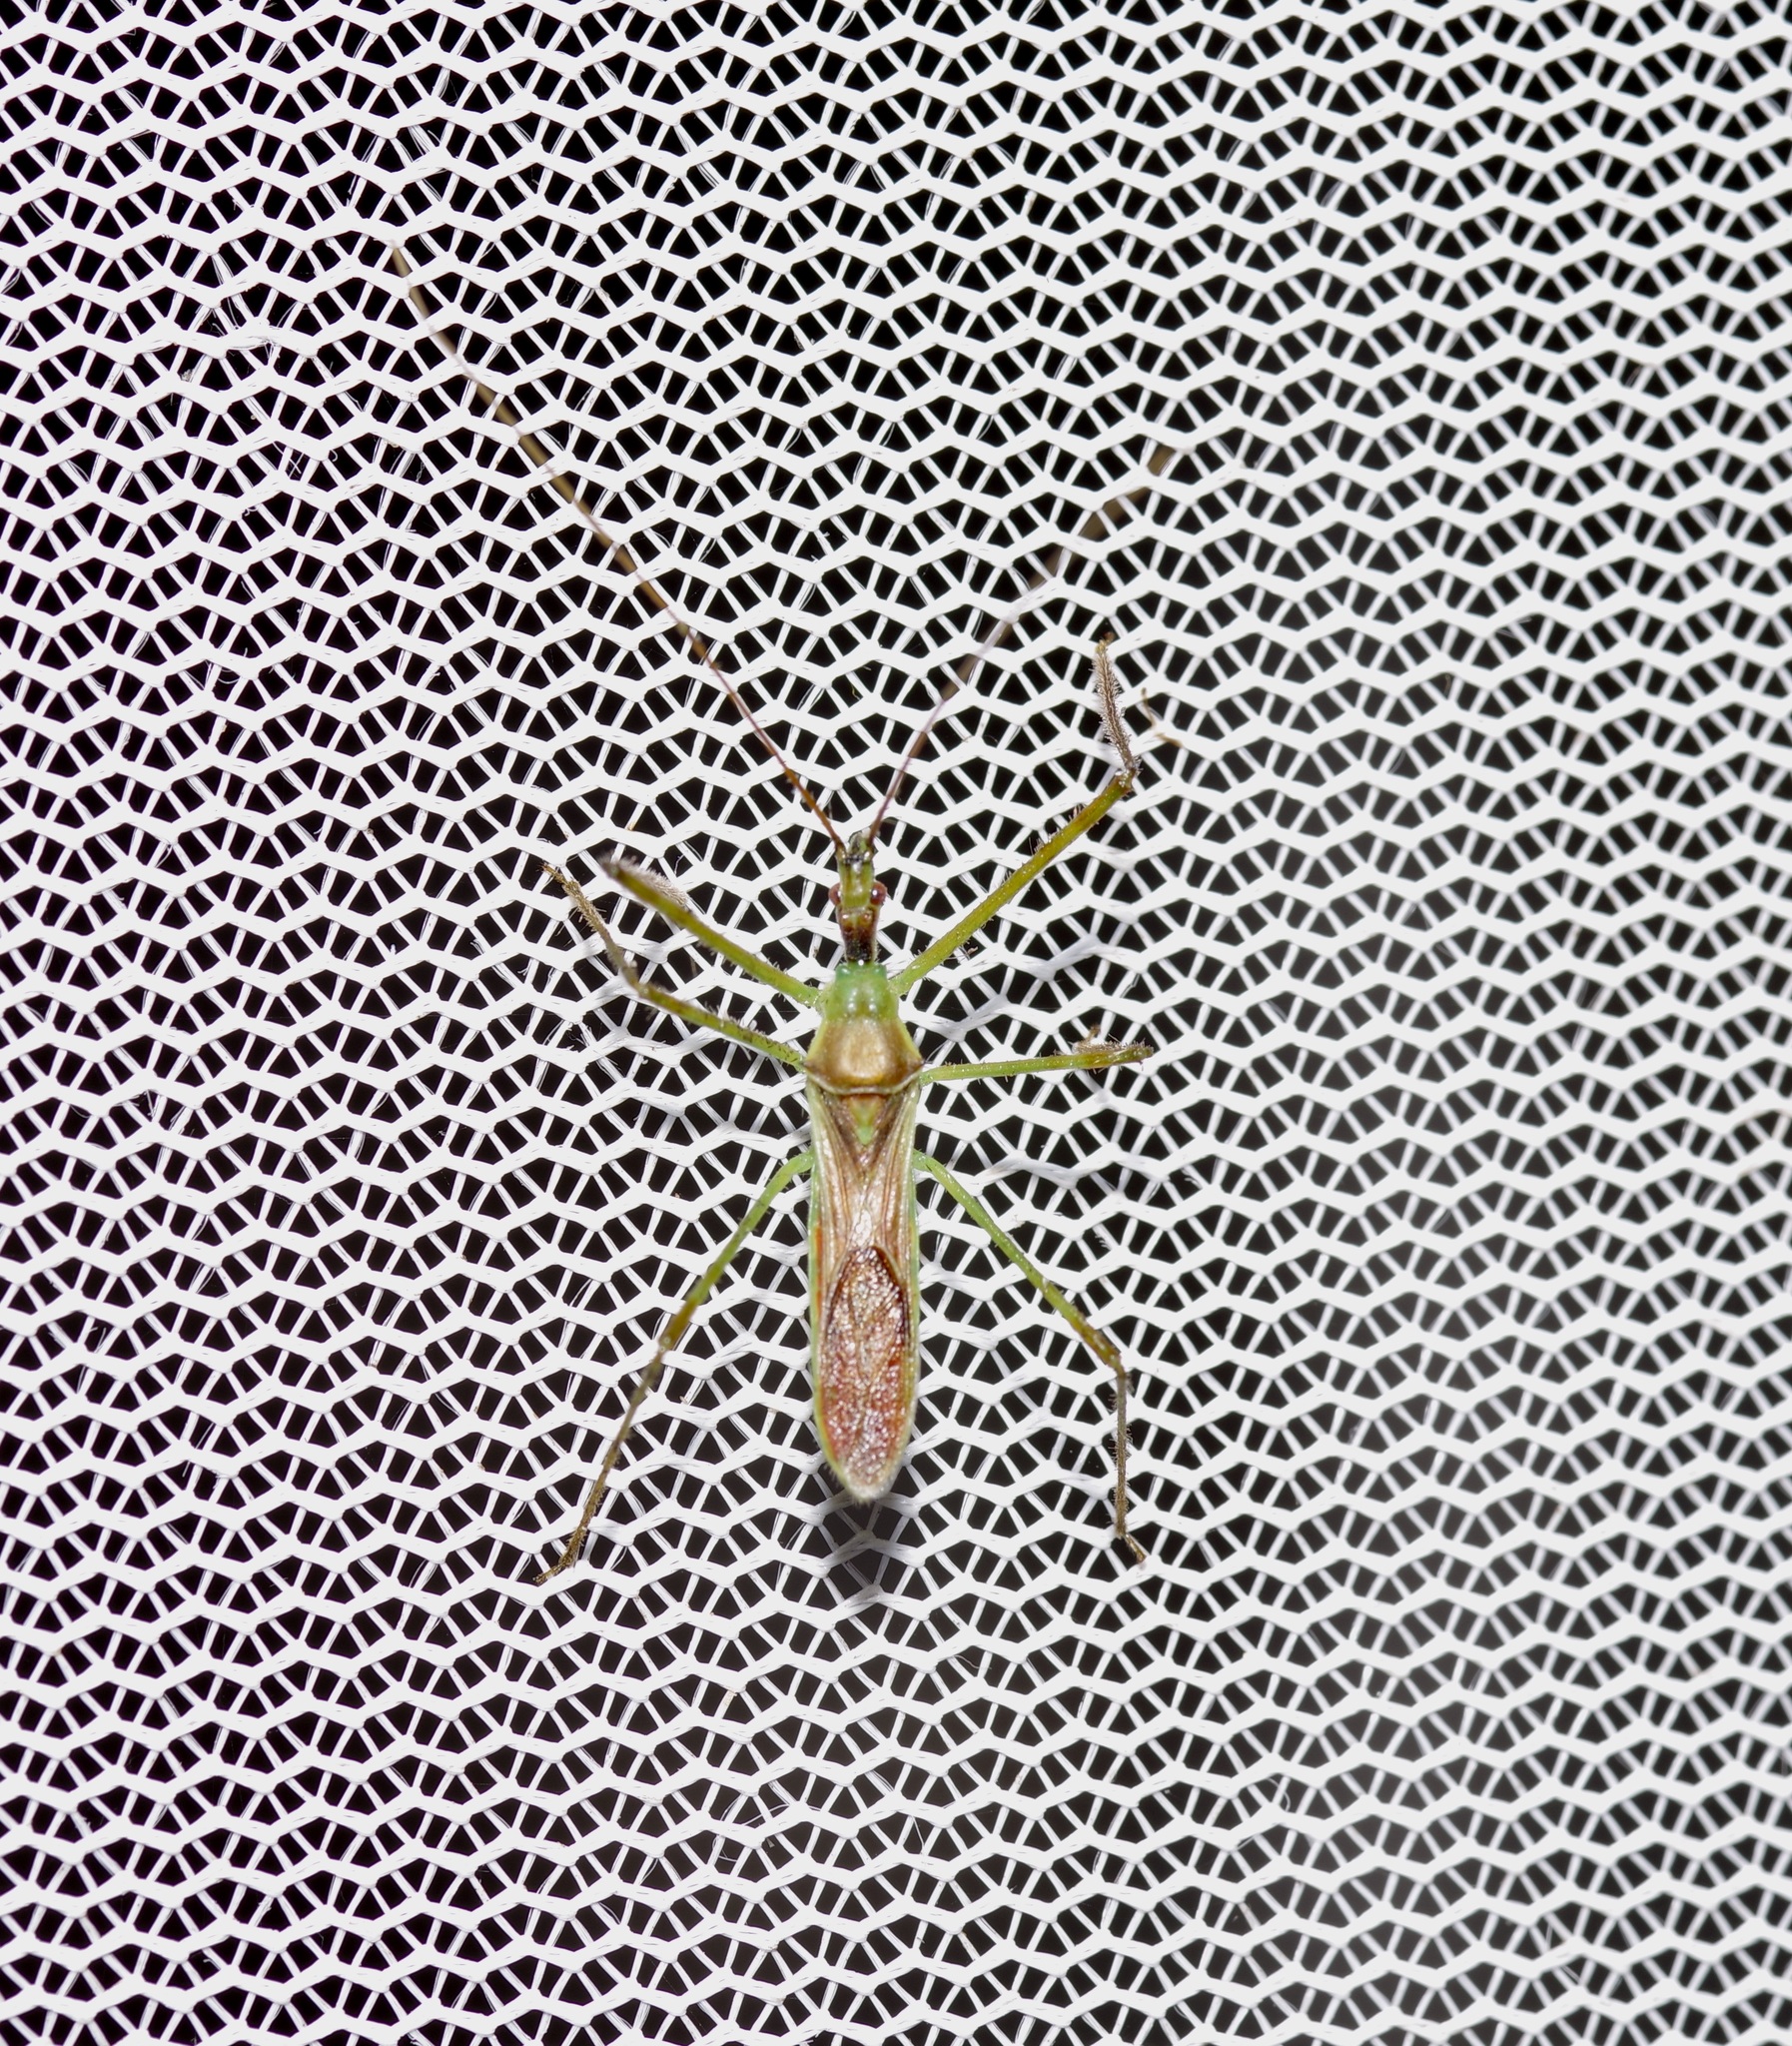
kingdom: Animalia
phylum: Arthropoda
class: Insecta
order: Hemiptera
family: Reduviidae
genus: Zelus
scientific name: Zelus luridus
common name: Pale green assassin bug
